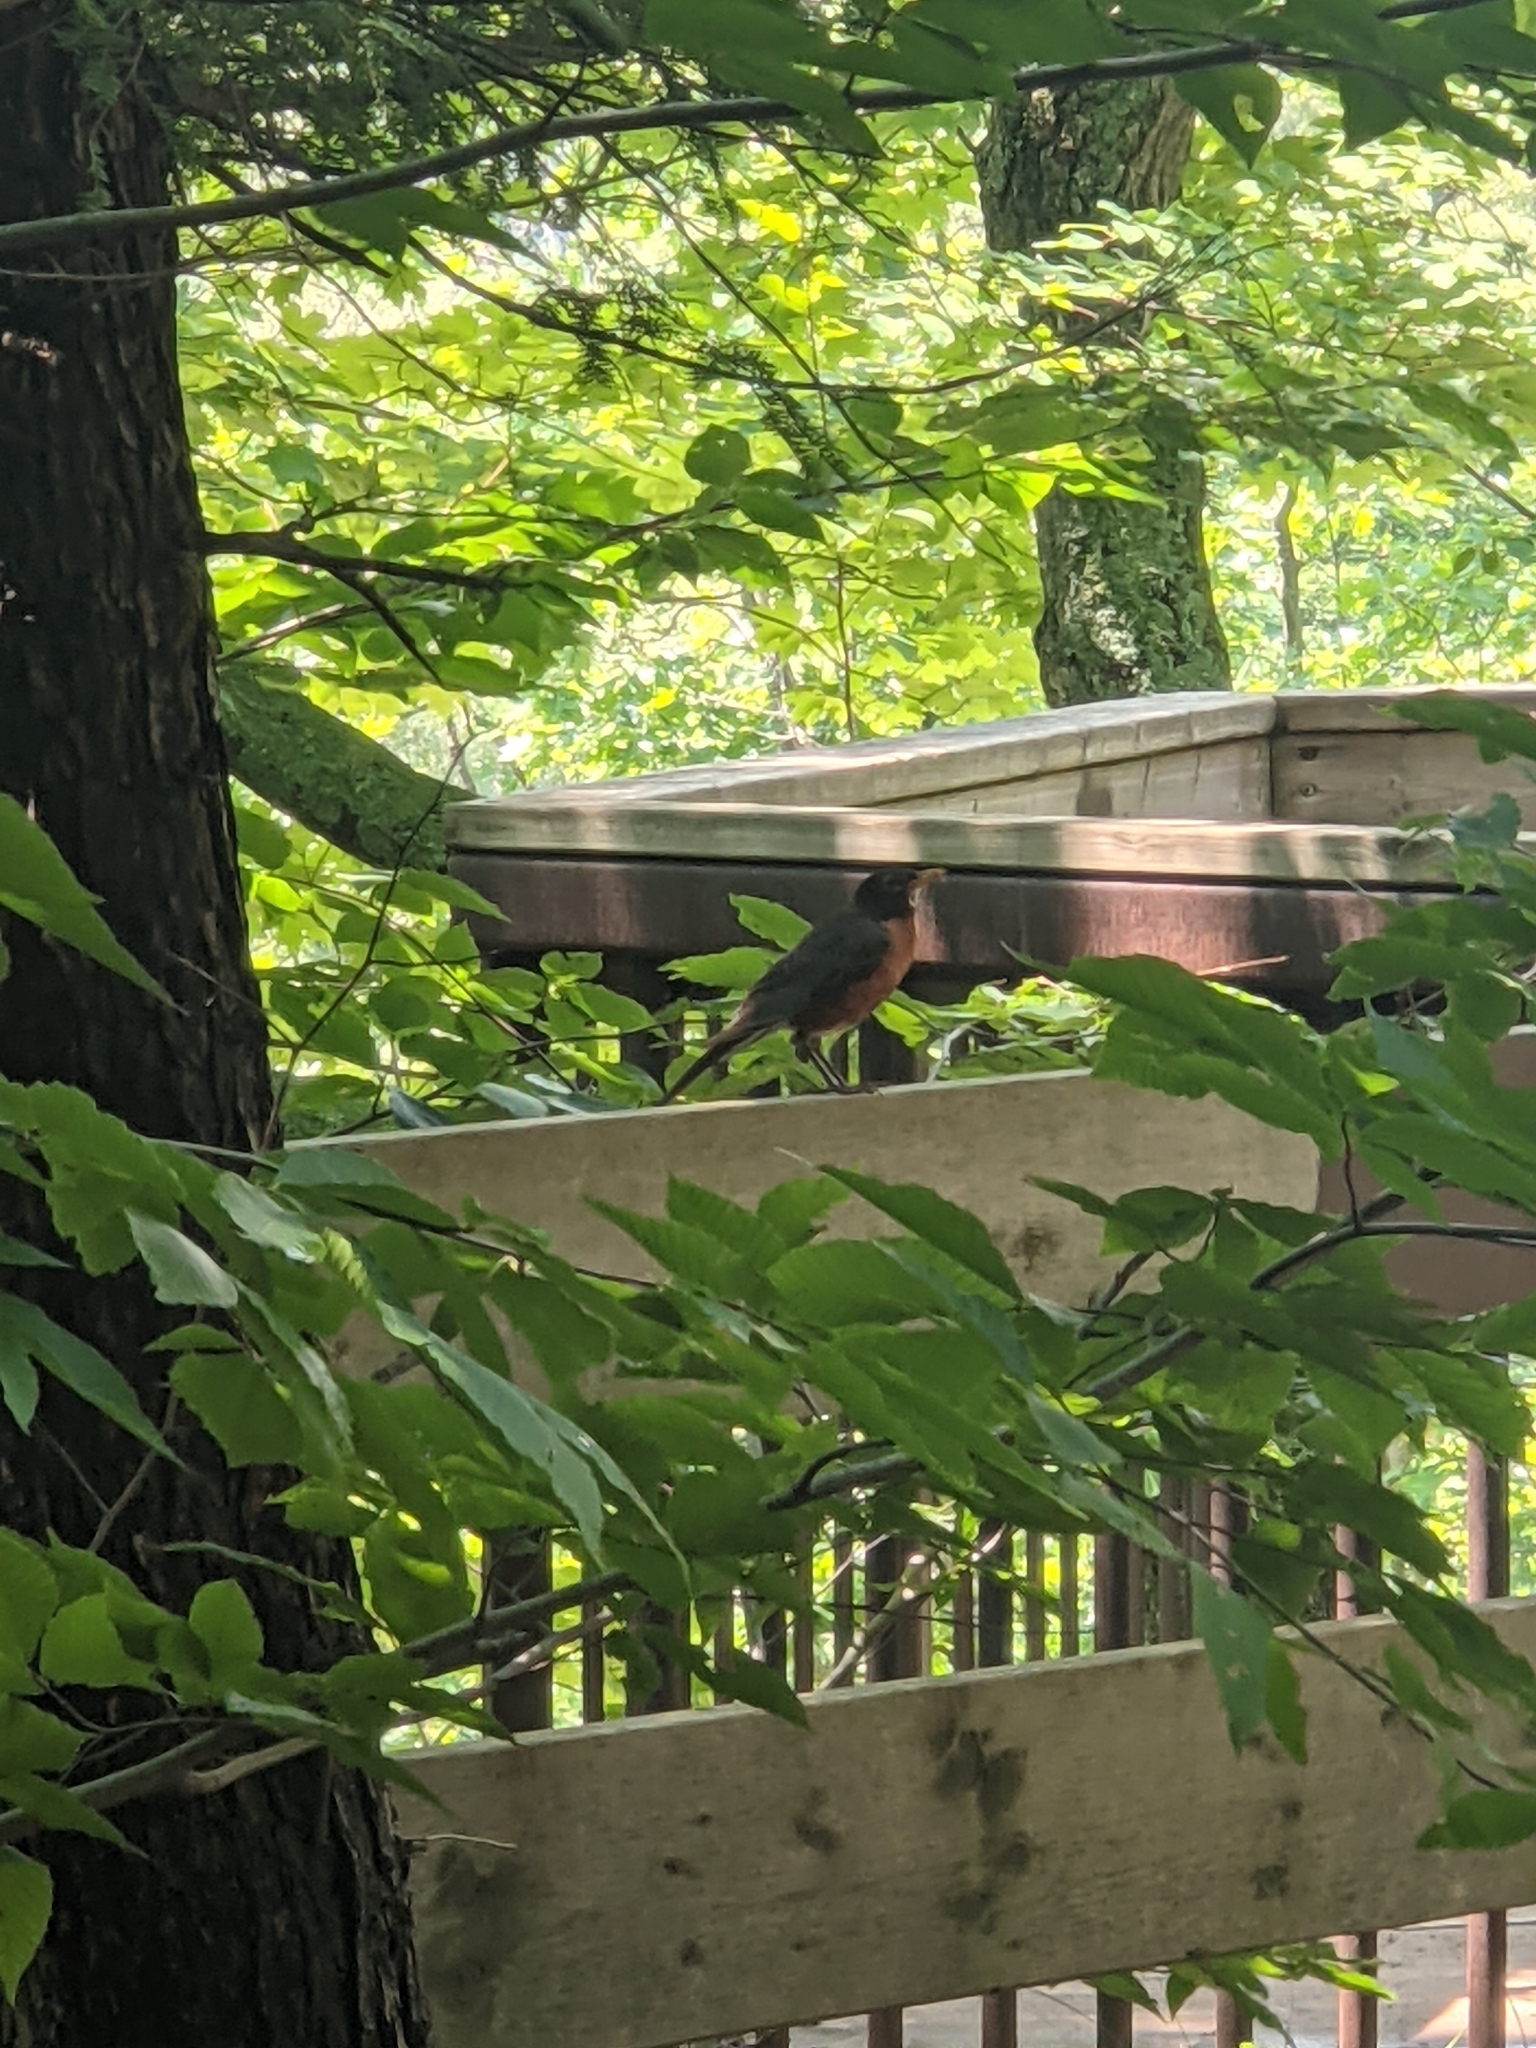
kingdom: Animalia
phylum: Chordata
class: Aves
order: Passeriformes
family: Turdidae
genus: Turdus
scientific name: Turdus migratorius
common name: American robin
